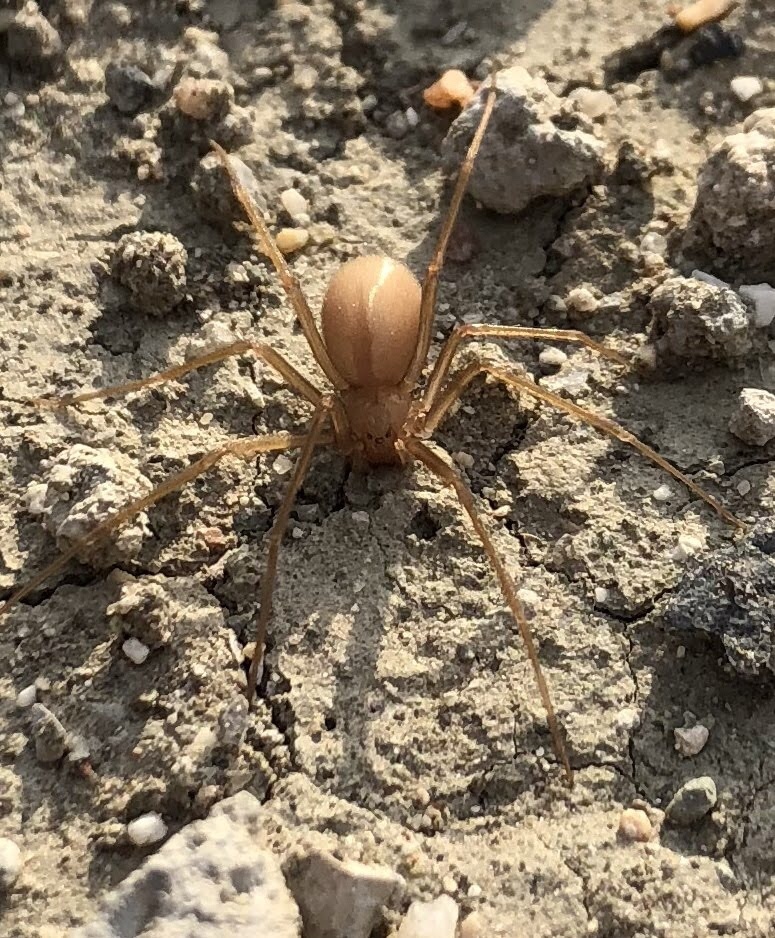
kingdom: Animalia
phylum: Arthropoda
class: Arachnida
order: Araneae
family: Sicariidae
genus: Loxosceles
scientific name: Loxosceles rufescens
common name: Mediterranean recluse spider
